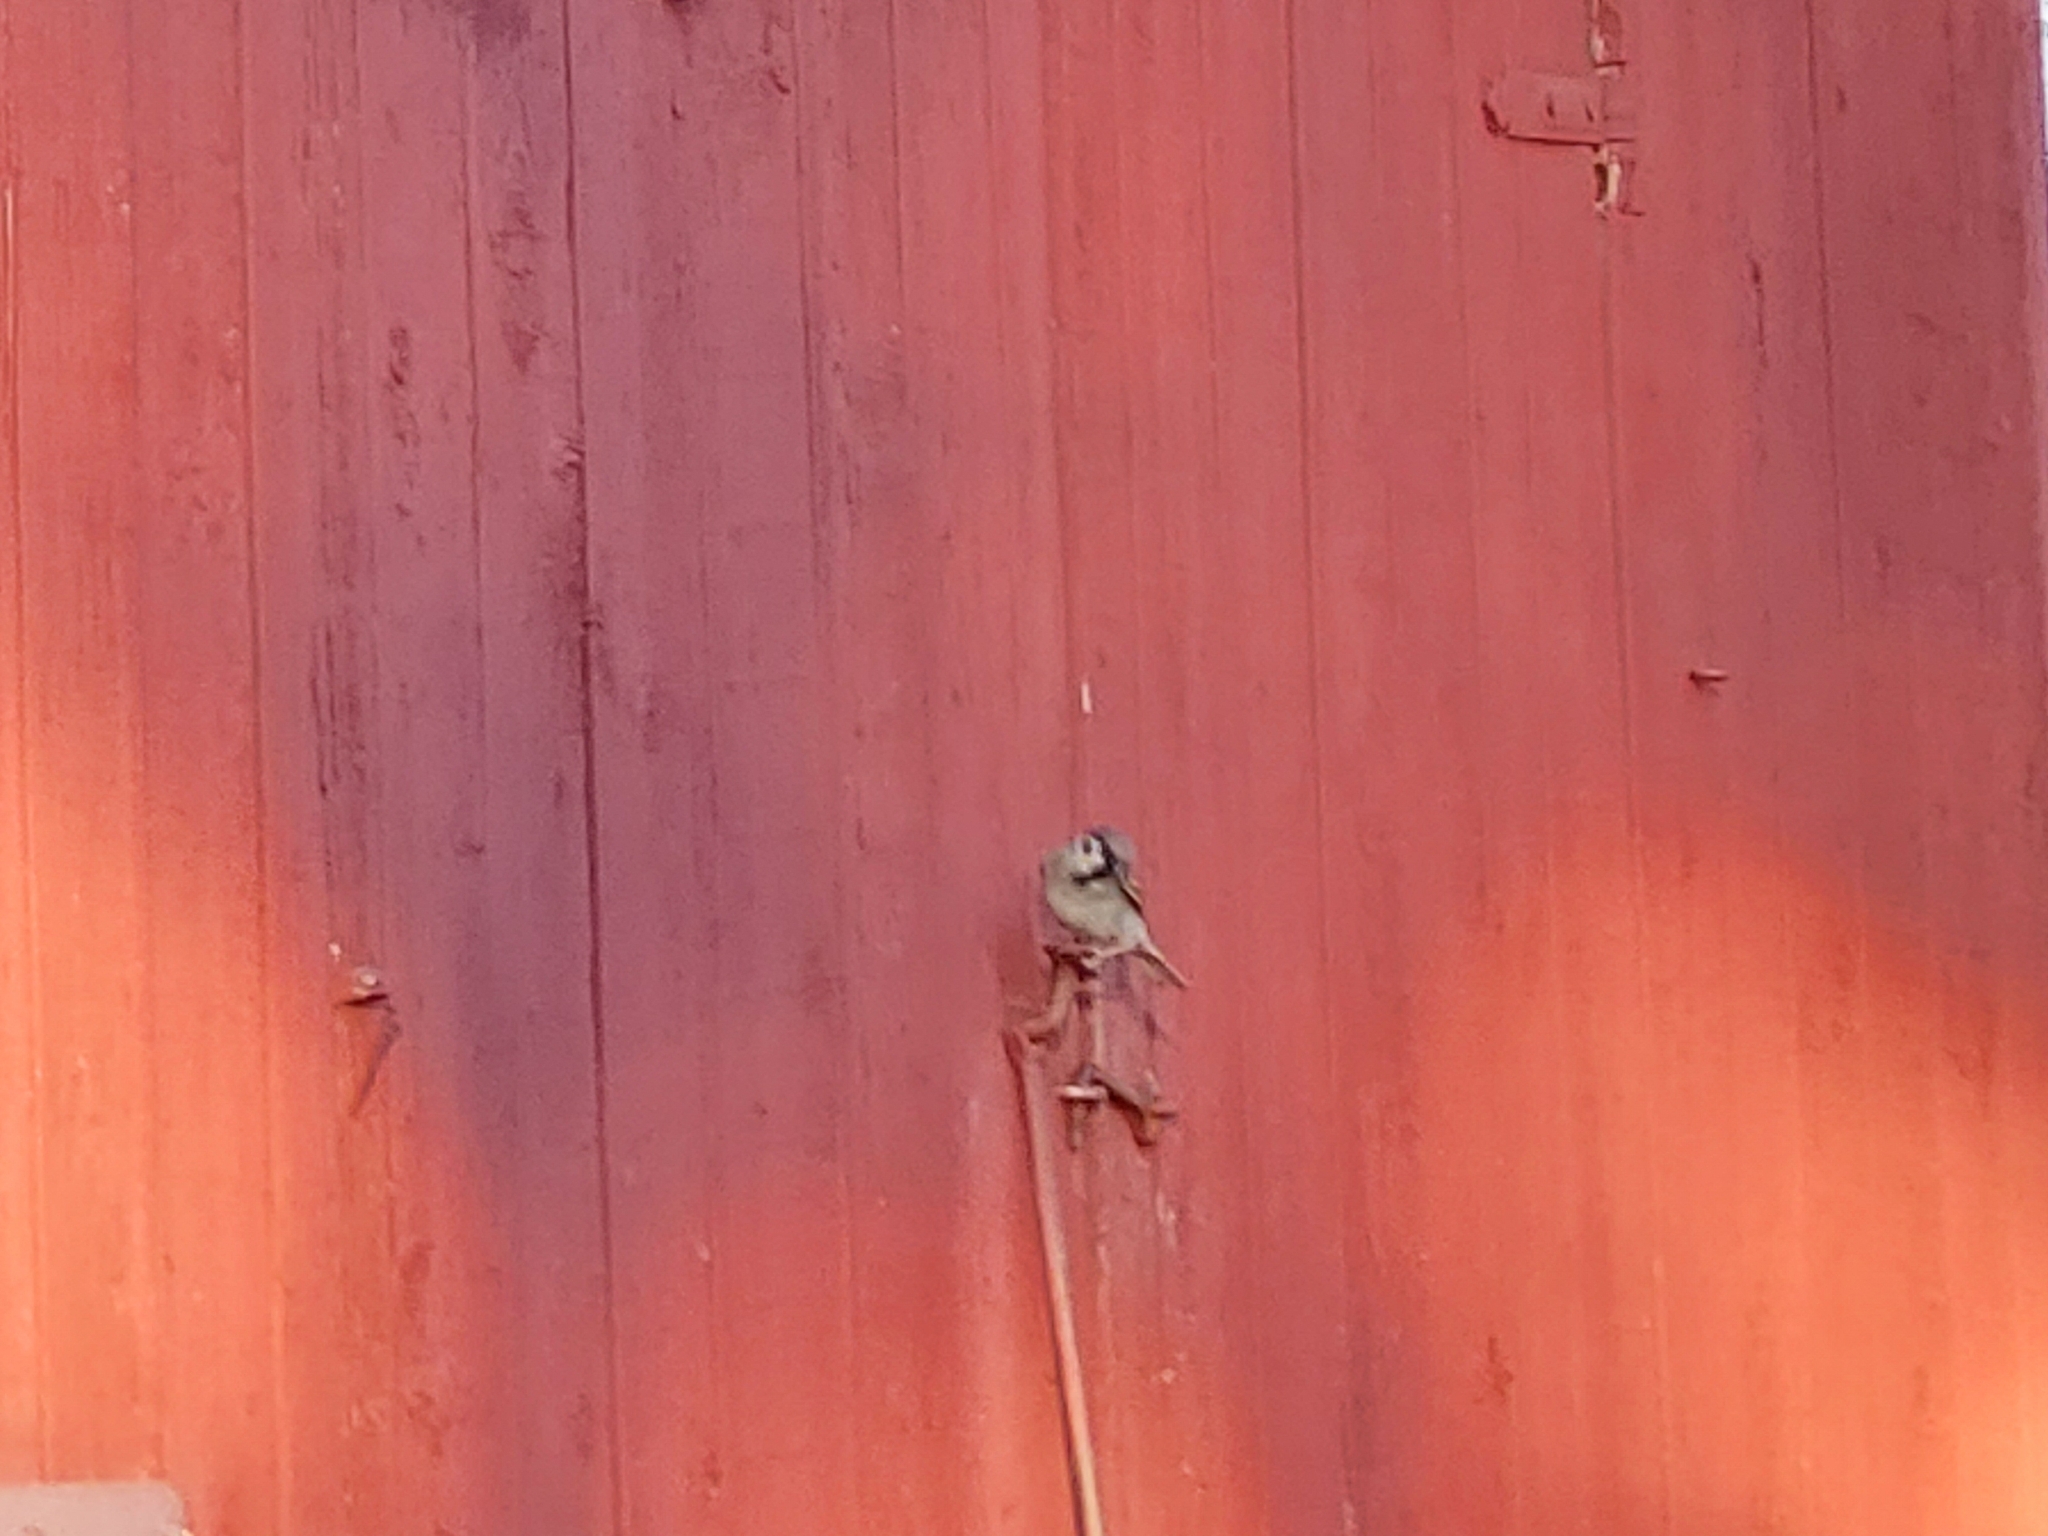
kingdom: Animalia
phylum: Chordata
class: Aves
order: Passeriformes
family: Passeridae
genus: Passer
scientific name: Passer montanus
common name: Eurasian tree sparrow
